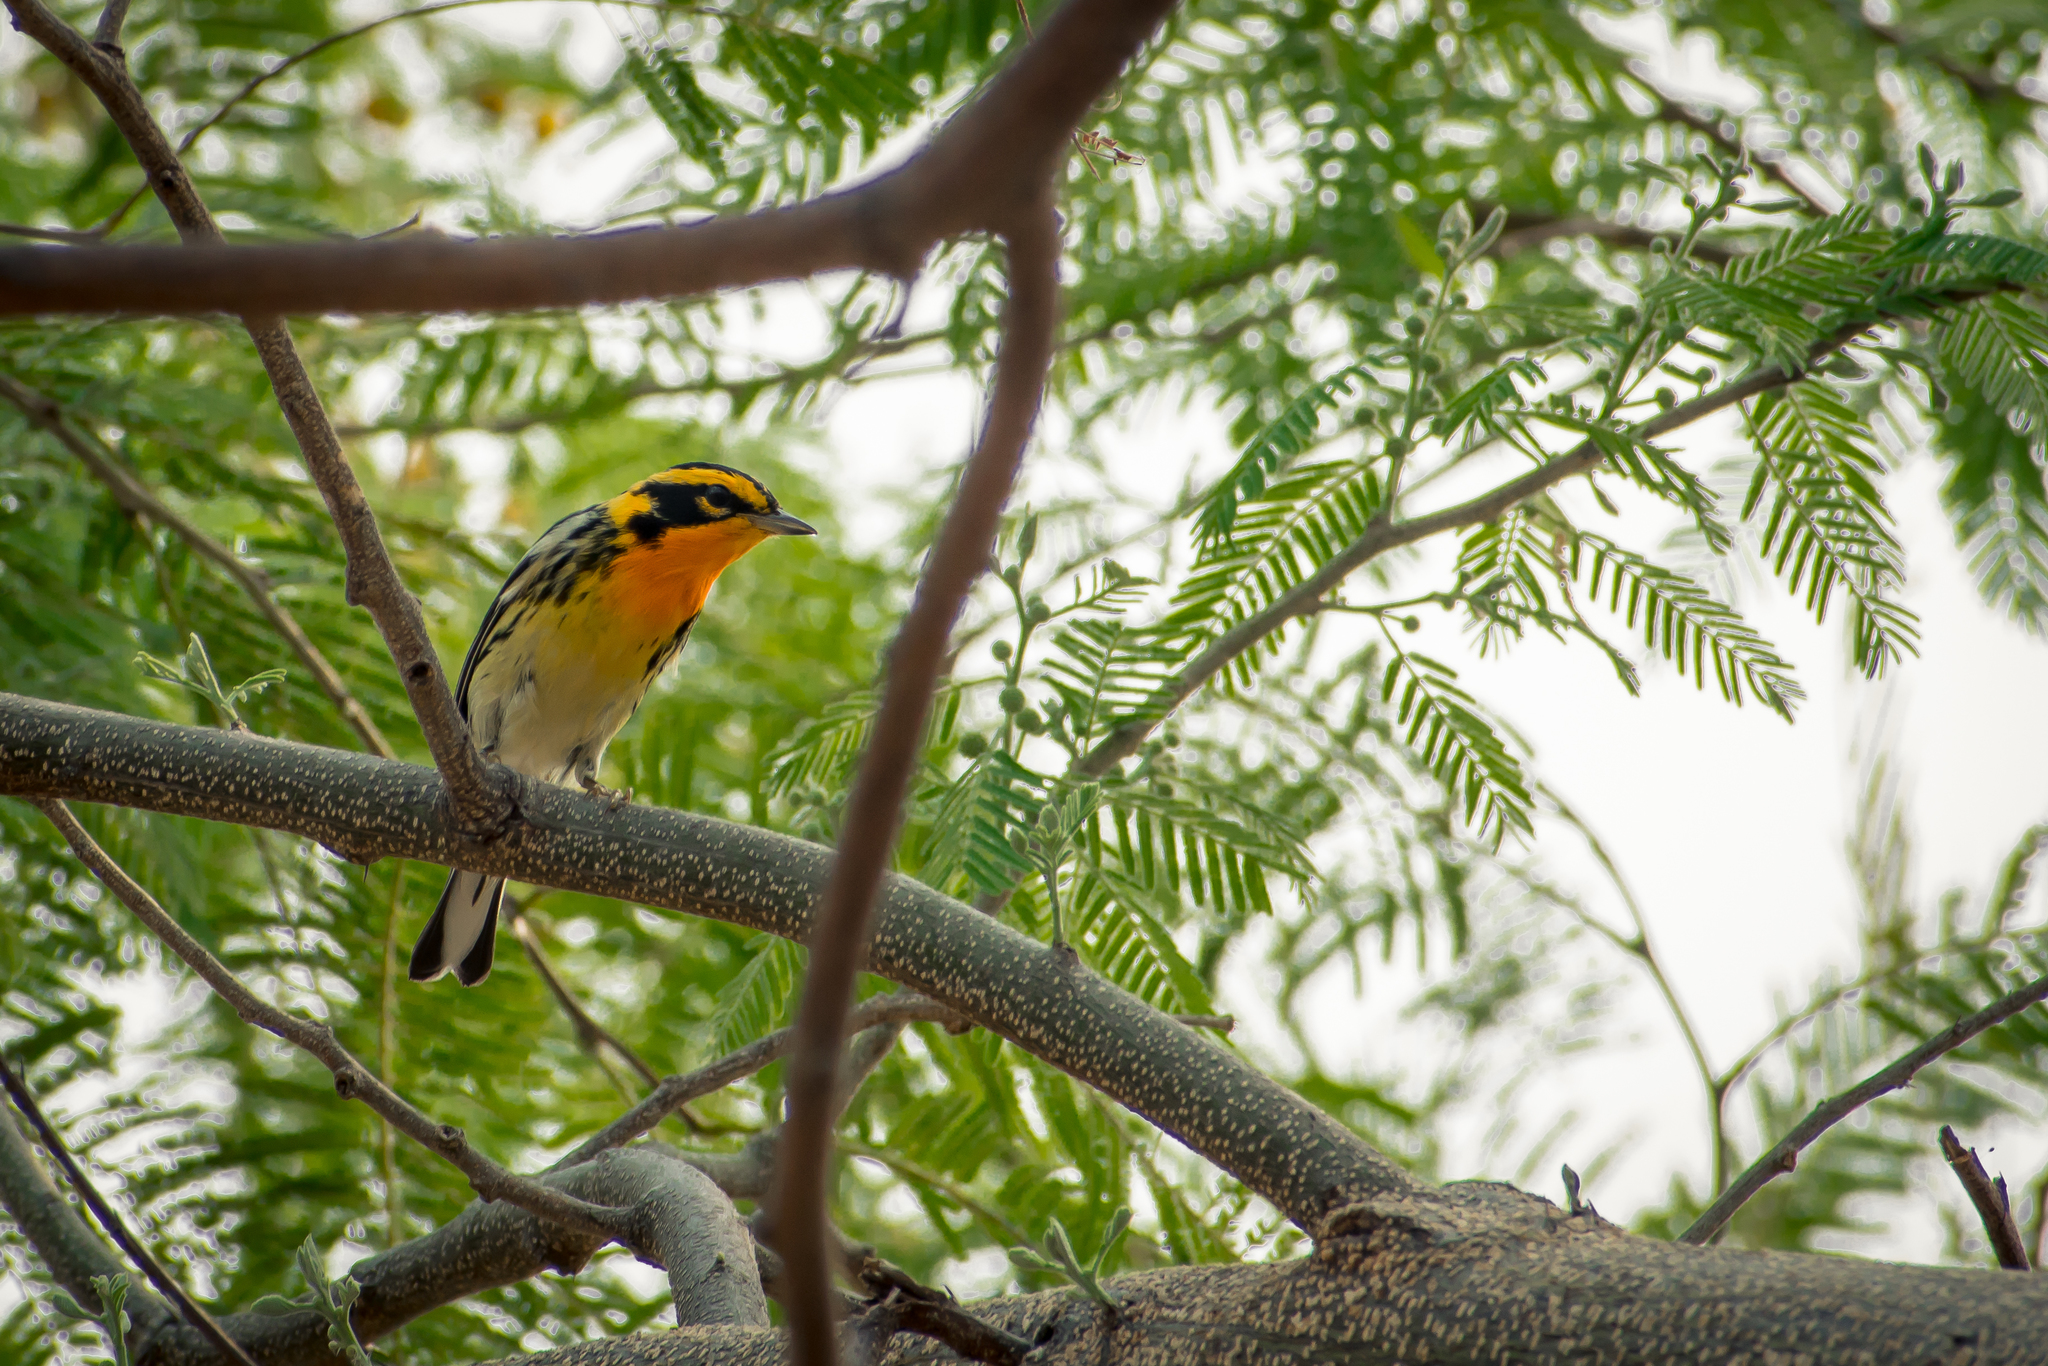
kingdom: Animalia
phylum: Chordata
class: Aves
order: Passeriformes
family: Parulidae
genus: Setophaga
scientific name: Setophaga fusca
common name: Blackburnian warbler
